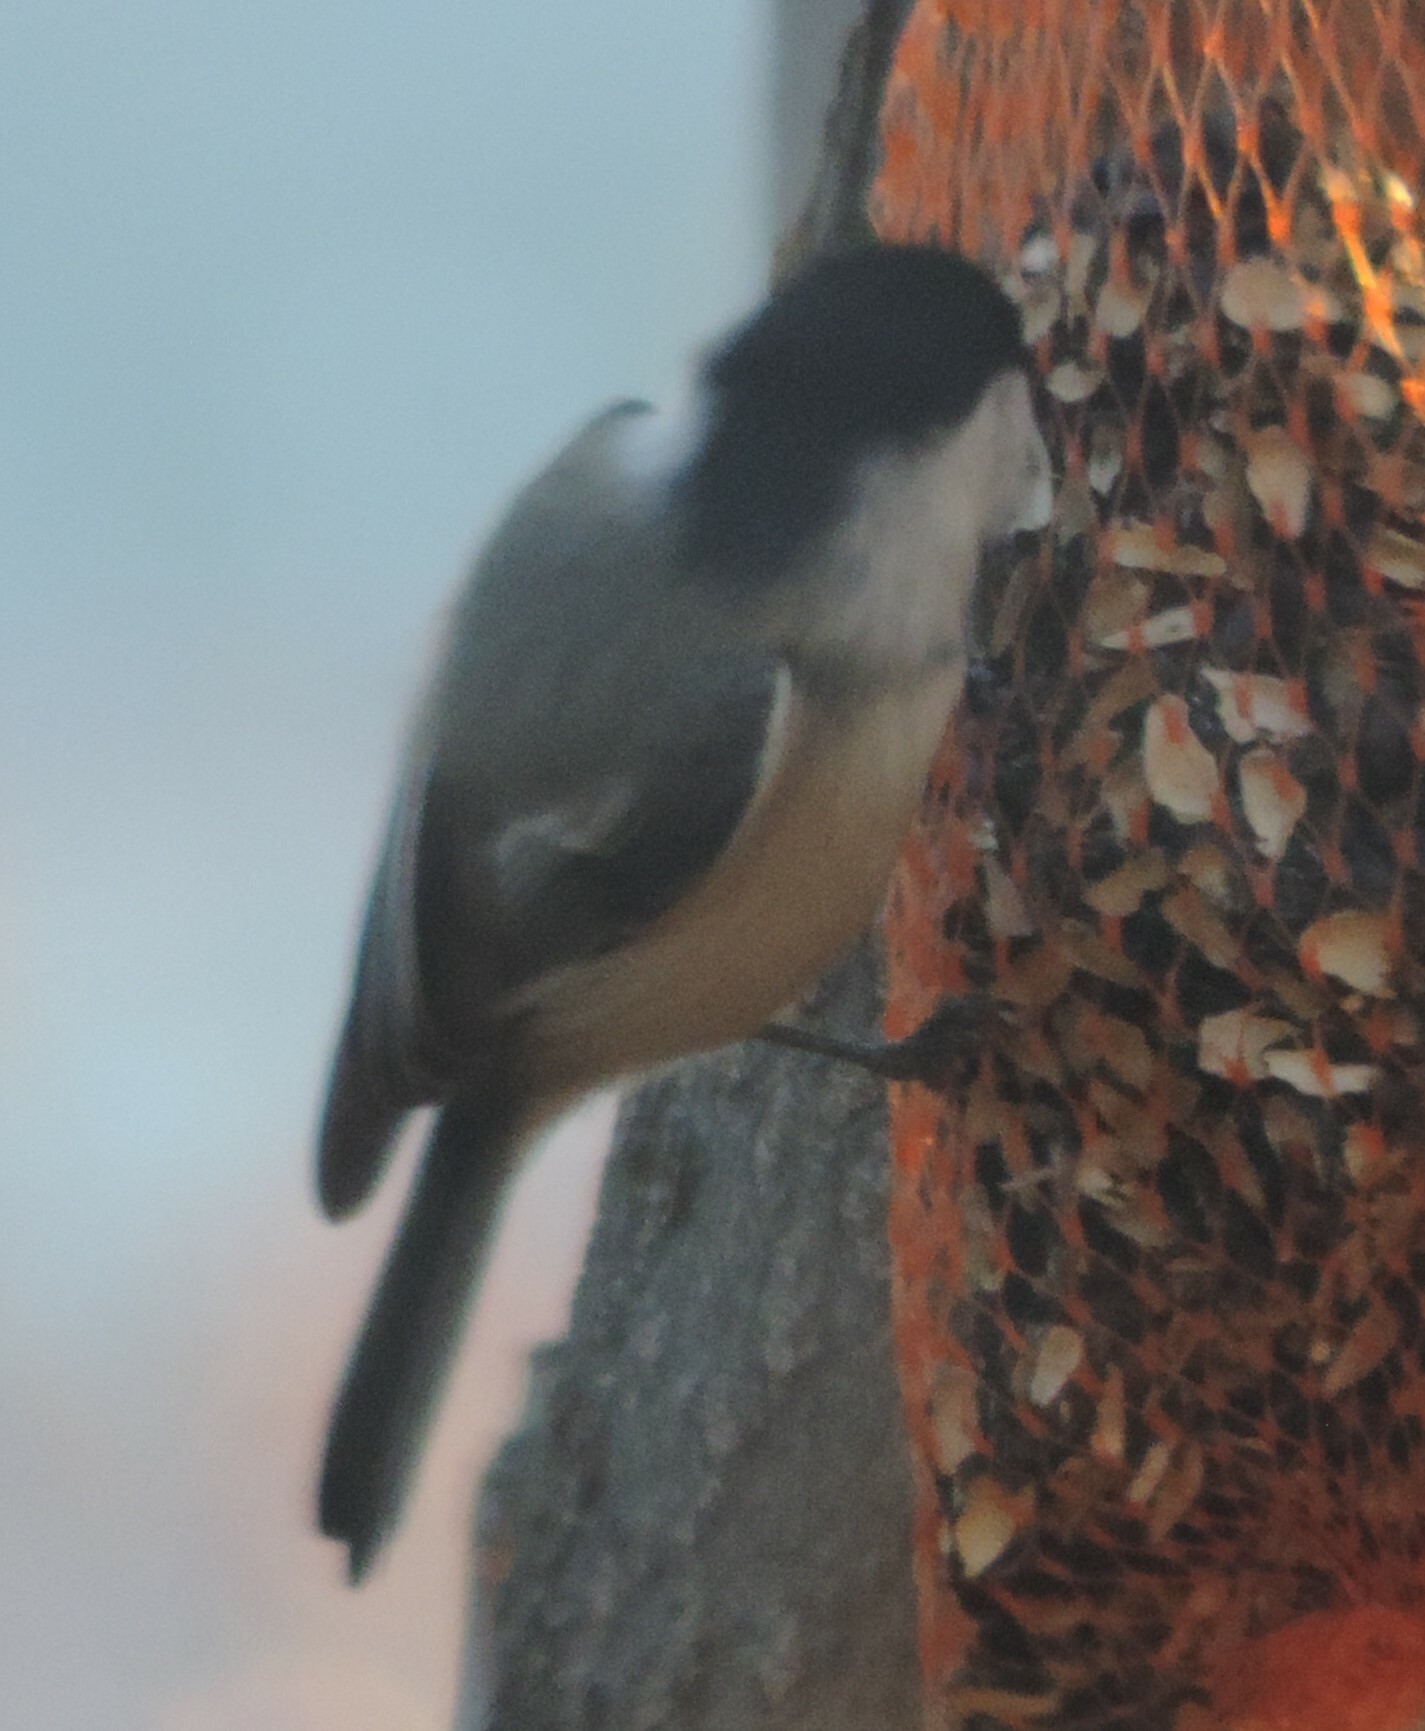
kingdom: Animalia
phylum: Chordata
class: Aves
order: Passeriformes
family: Paridae
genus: Poecile
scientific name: Poecile atricapillus
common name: Black-capped chickadee
